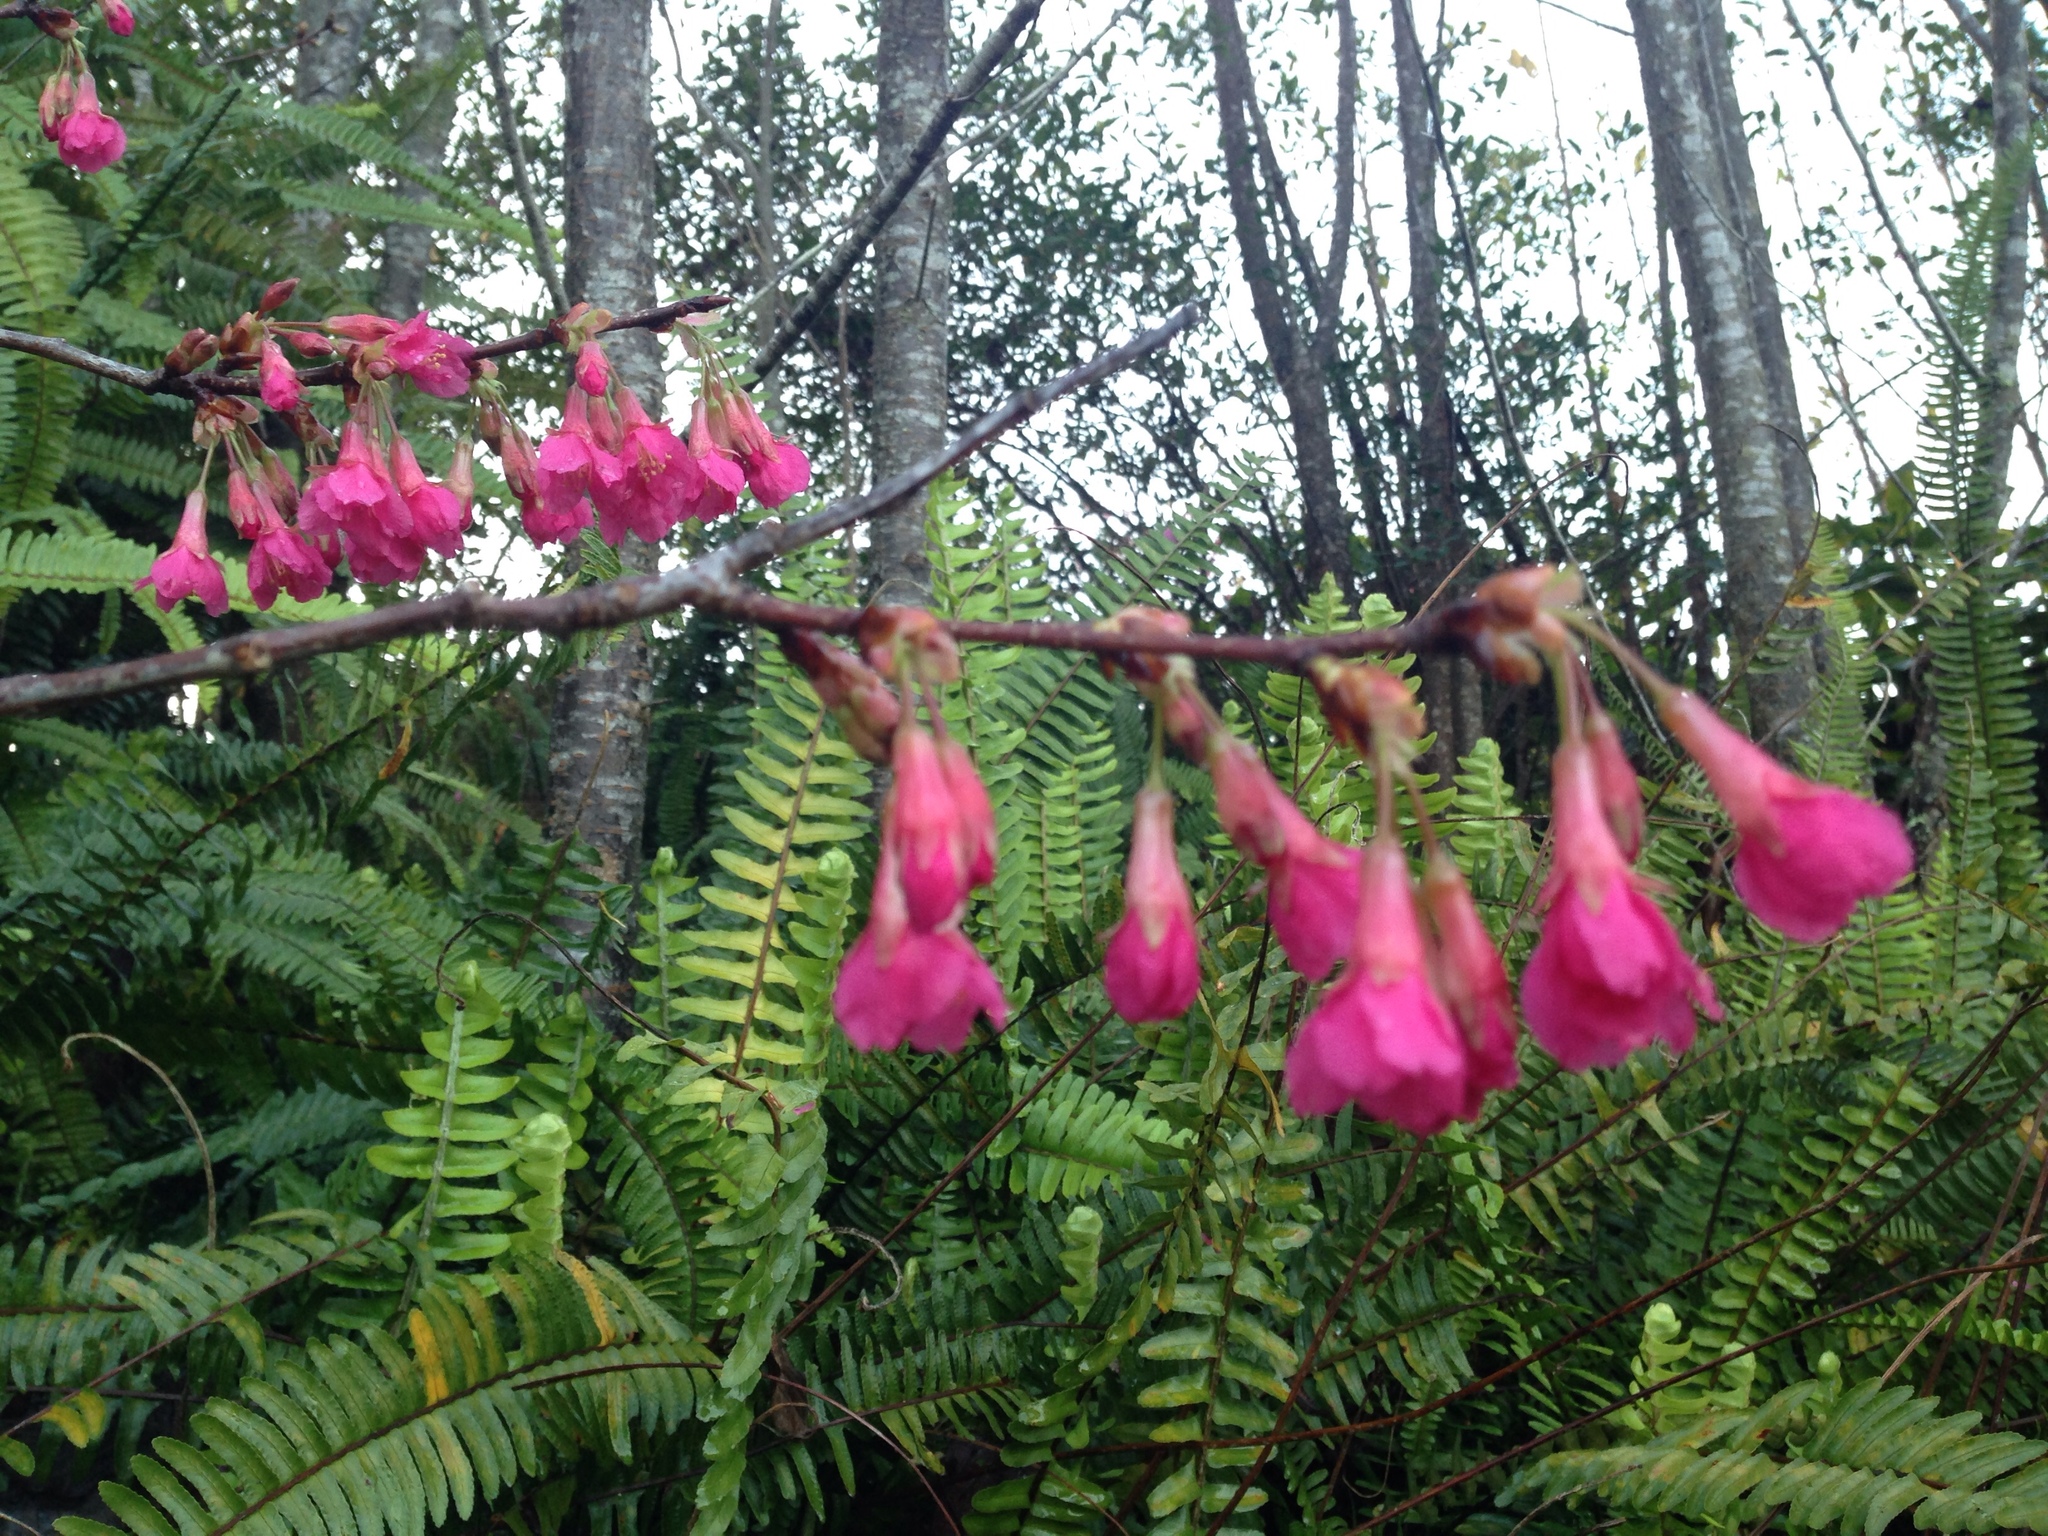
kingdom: Plantae
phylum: Tracheophyta
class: Magnoliopsida
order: Rosales
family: Rosaceae
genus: Prunus
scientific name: Prunus campanulata
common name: Taiwan flowering cherry
